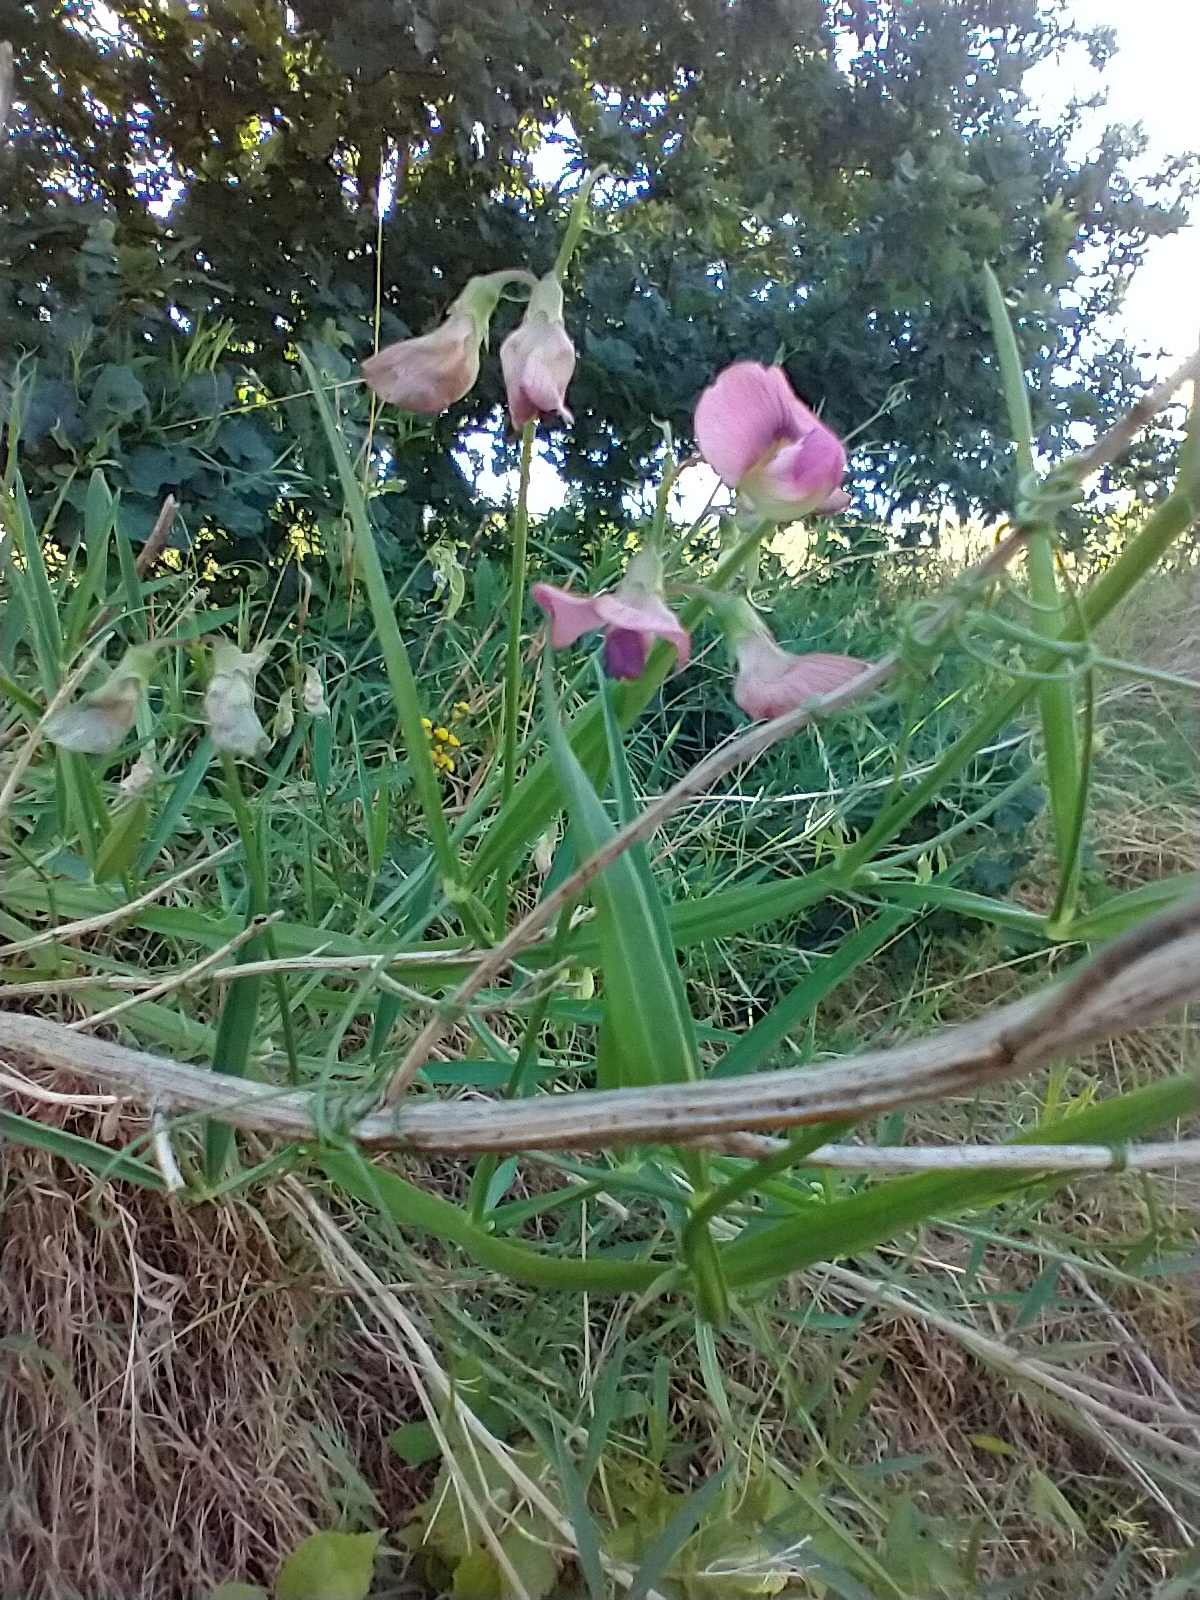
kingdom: Plantae
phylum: Tracheophyta
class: Magnoliopsida
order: Fabales
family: Fabaceae
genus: Lathyrus
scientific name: Lathyrus sylvestris
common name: Flat pea
